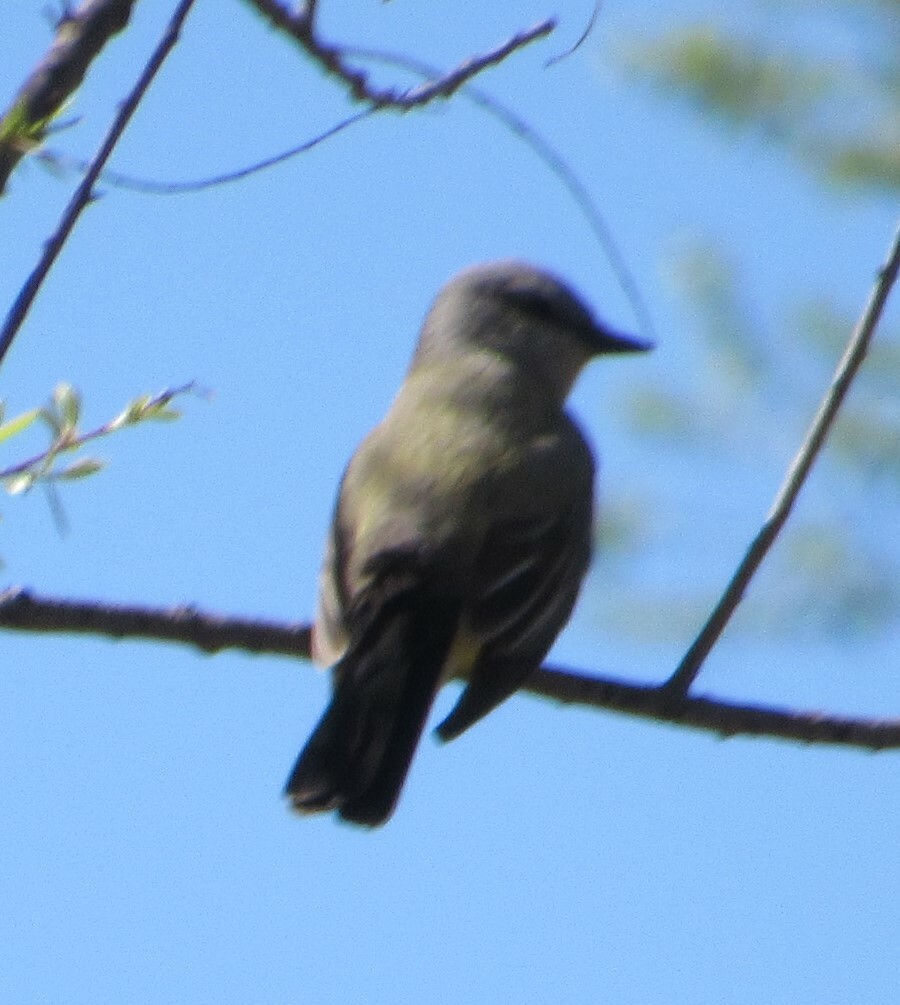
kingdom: Animalia
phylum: Chordata
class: Aves
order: Passeriformes
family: Tyrannidae
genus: Tyrannus
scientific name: Tyrannus verticalis
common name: Western kingbird
